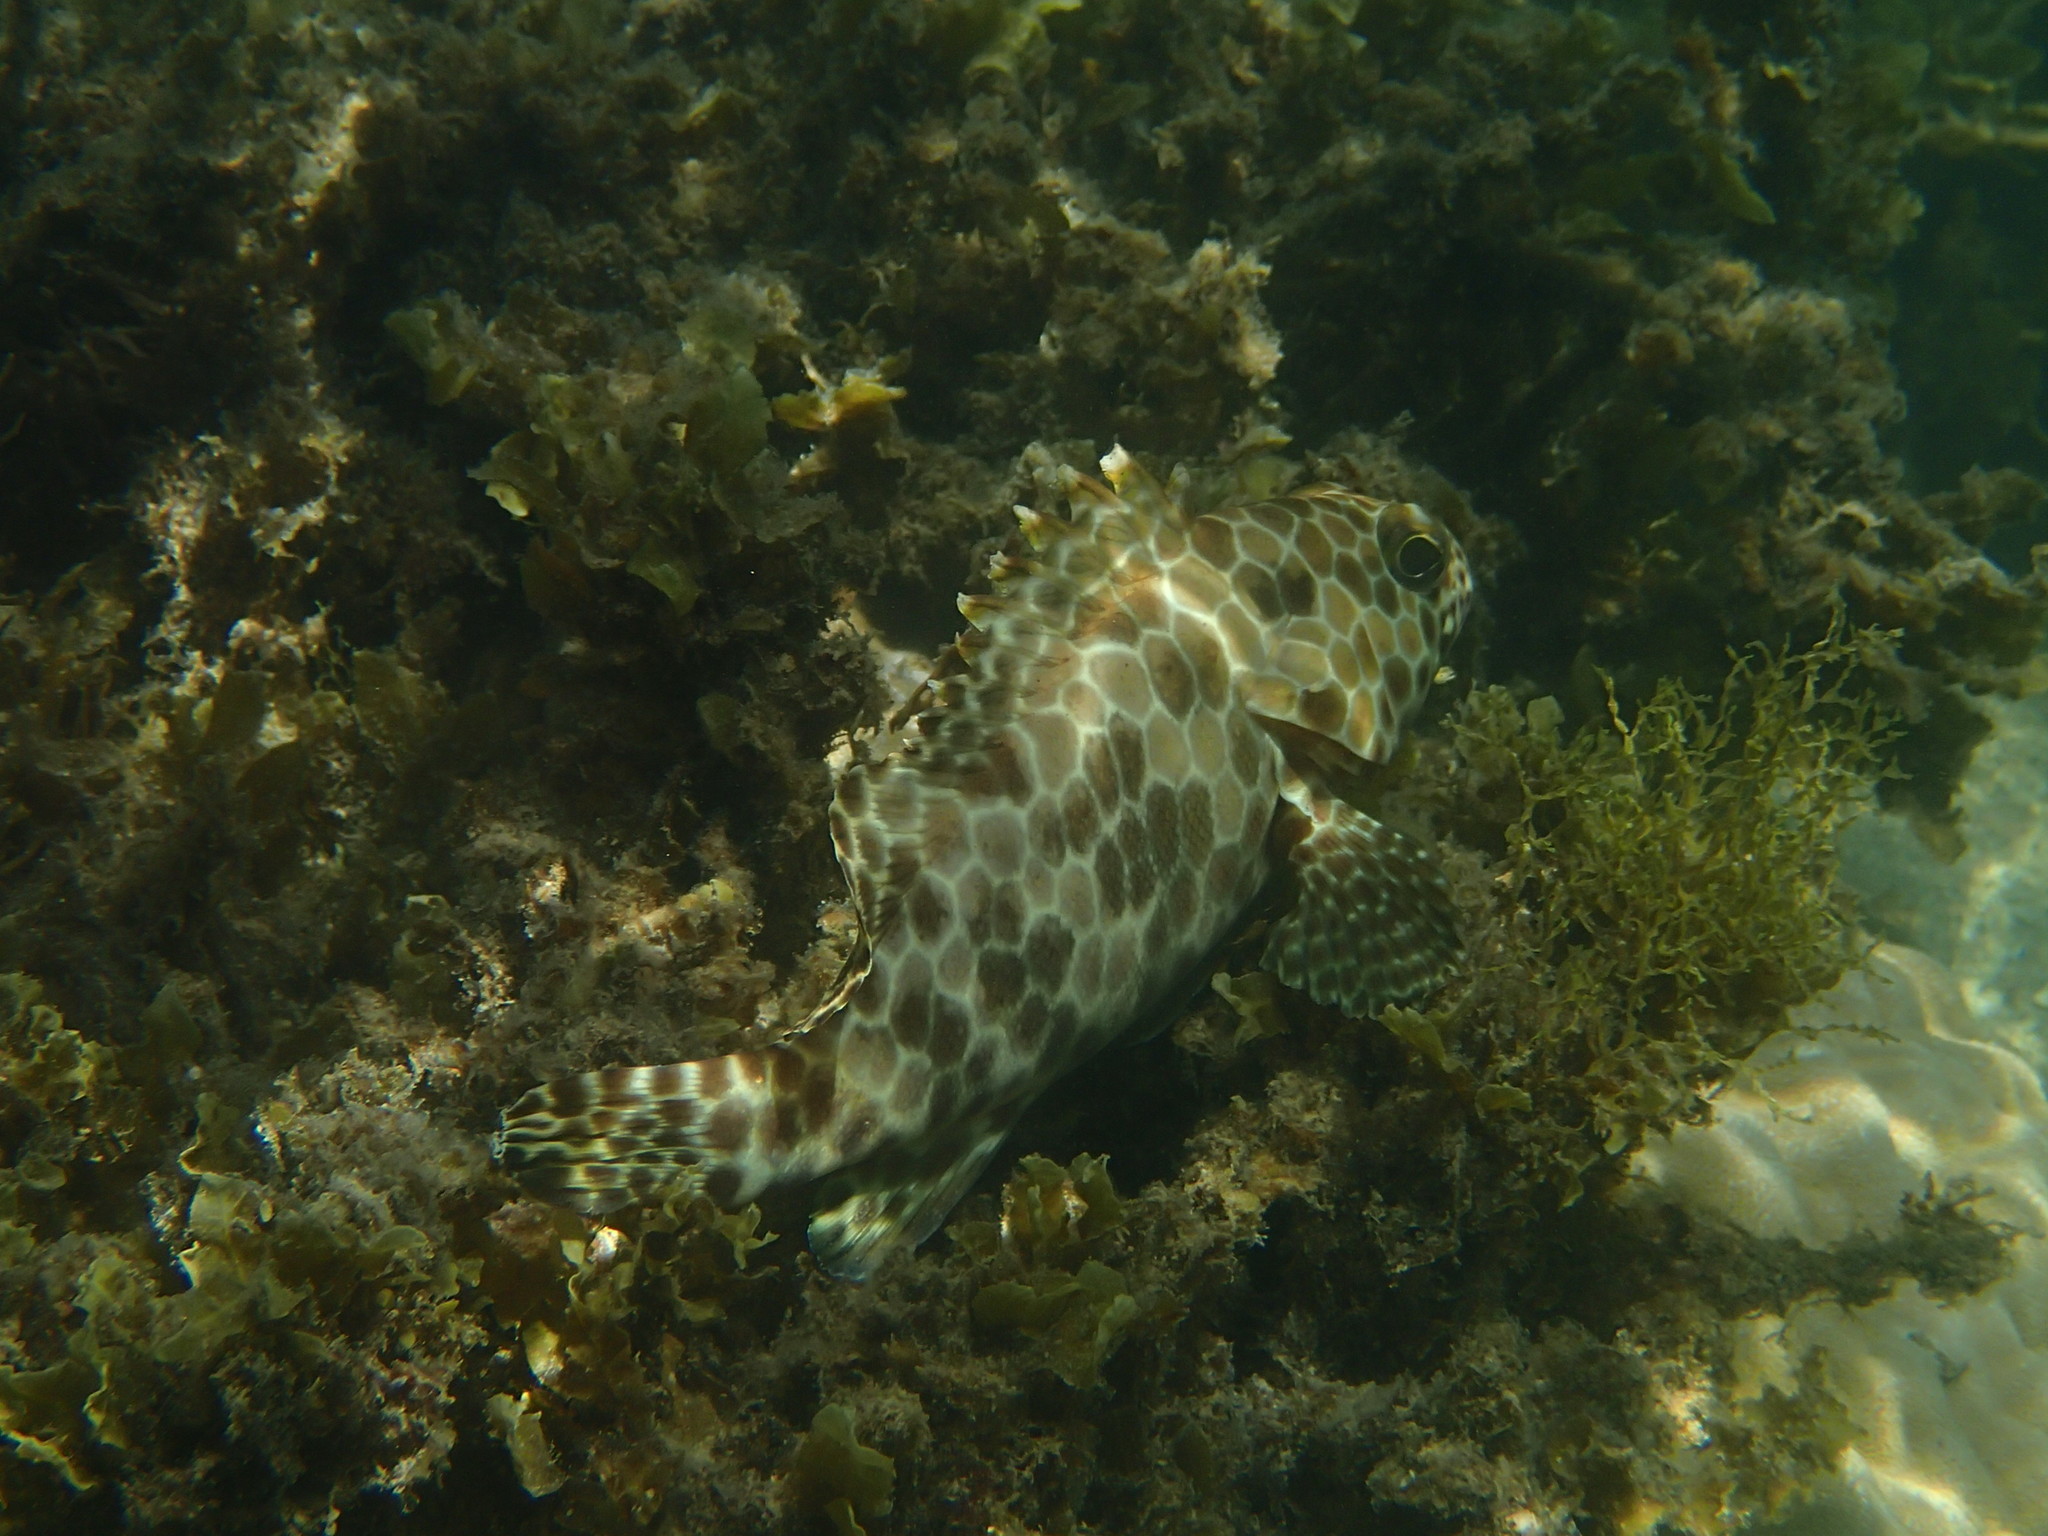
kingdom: Animalia
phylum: Chordata
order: Perciformes
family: Serranidae
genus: Epinephelus
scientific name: Epinephelus quoyanus
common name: Longfin grouper
